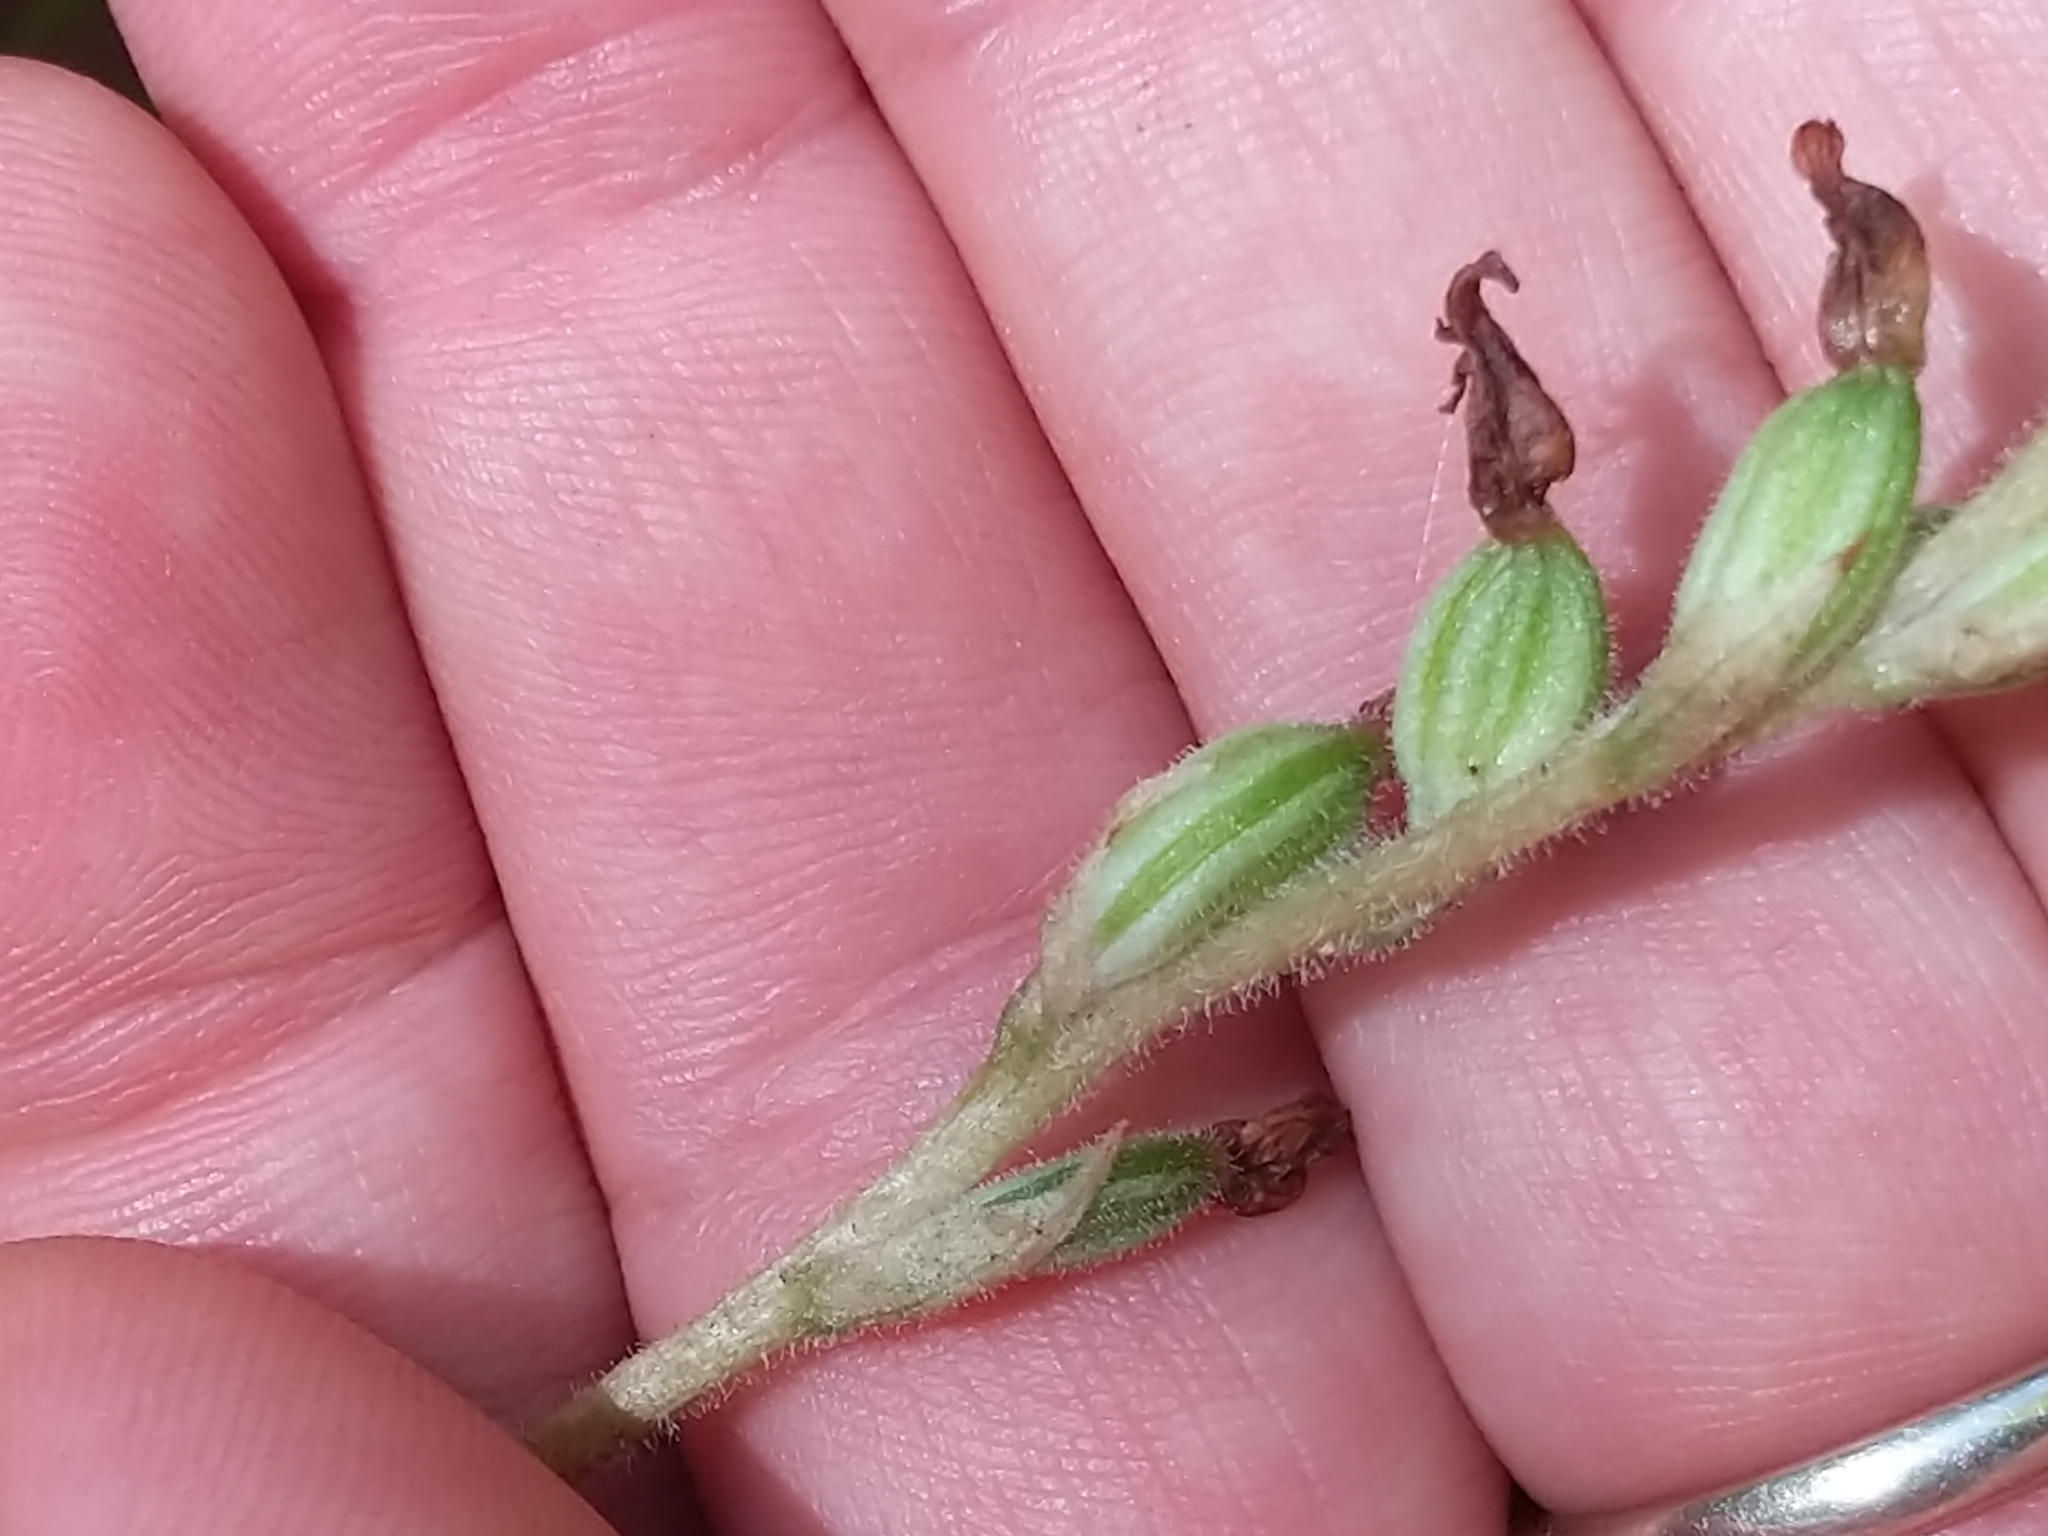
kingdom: Plantae
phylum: Tracheophyta
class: Liliopsida
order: Asparagales
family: Orchidaceae
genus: Goodyera
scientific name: Goodyera oblongifolia
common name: Giant rattlesnake-plantain
